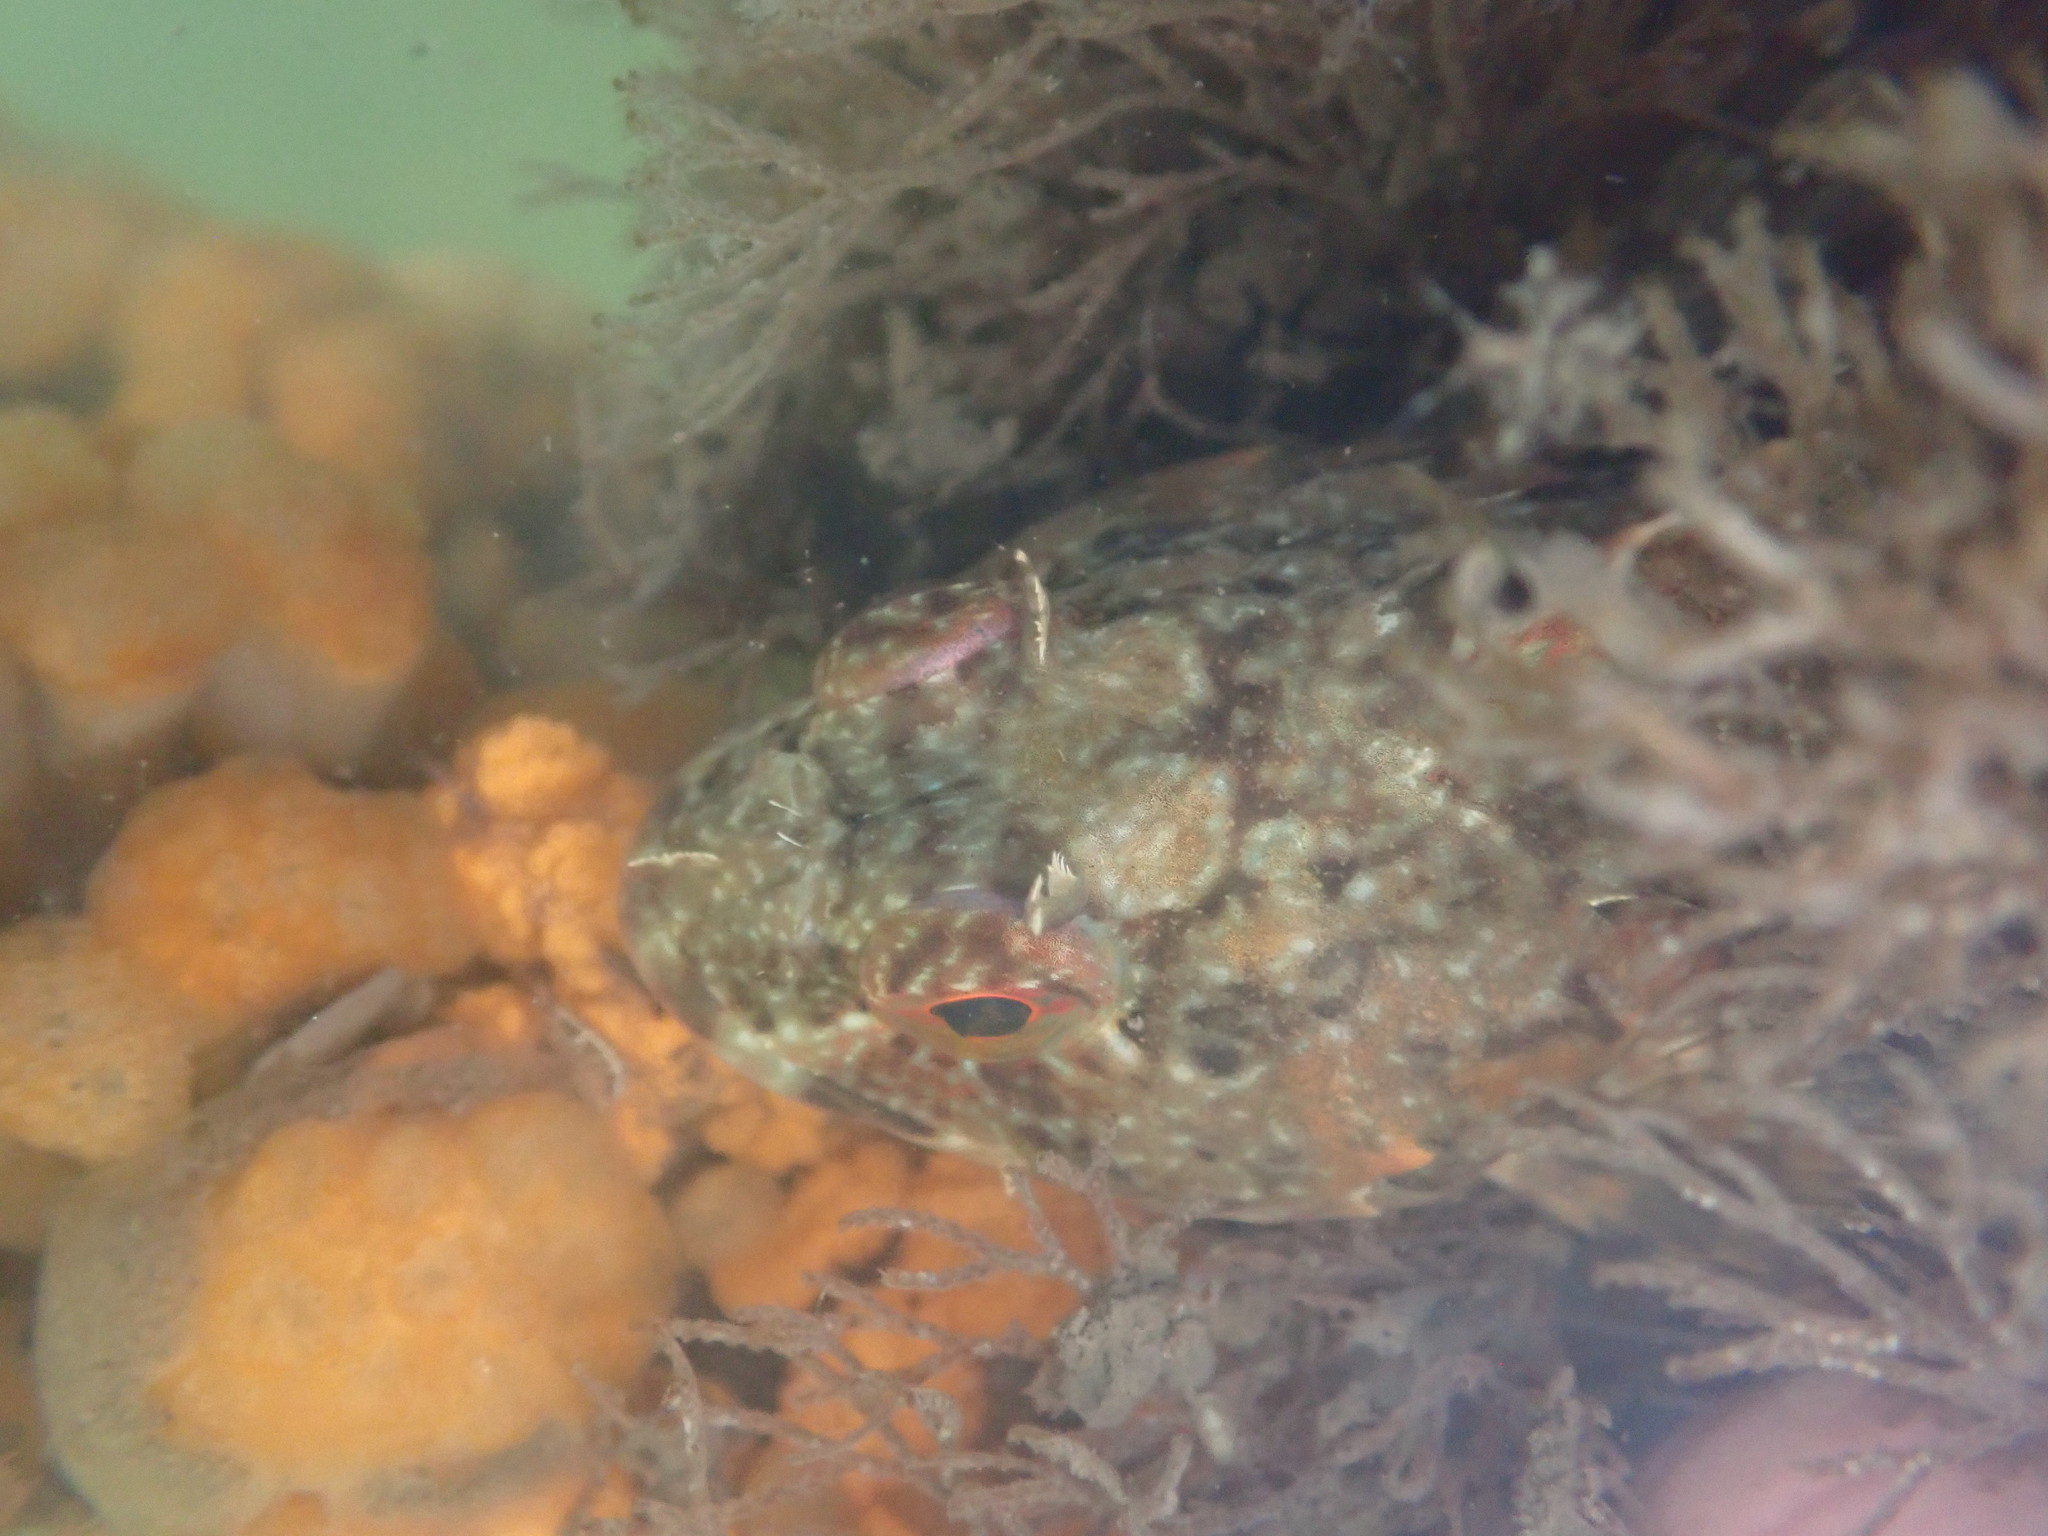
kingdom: Animalia
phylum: Chordata
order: Scorpaeniformes
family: Cottidae
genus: Scorpaenichthys
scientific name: Scorpaenichthys marmoratus
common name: Cabezon
